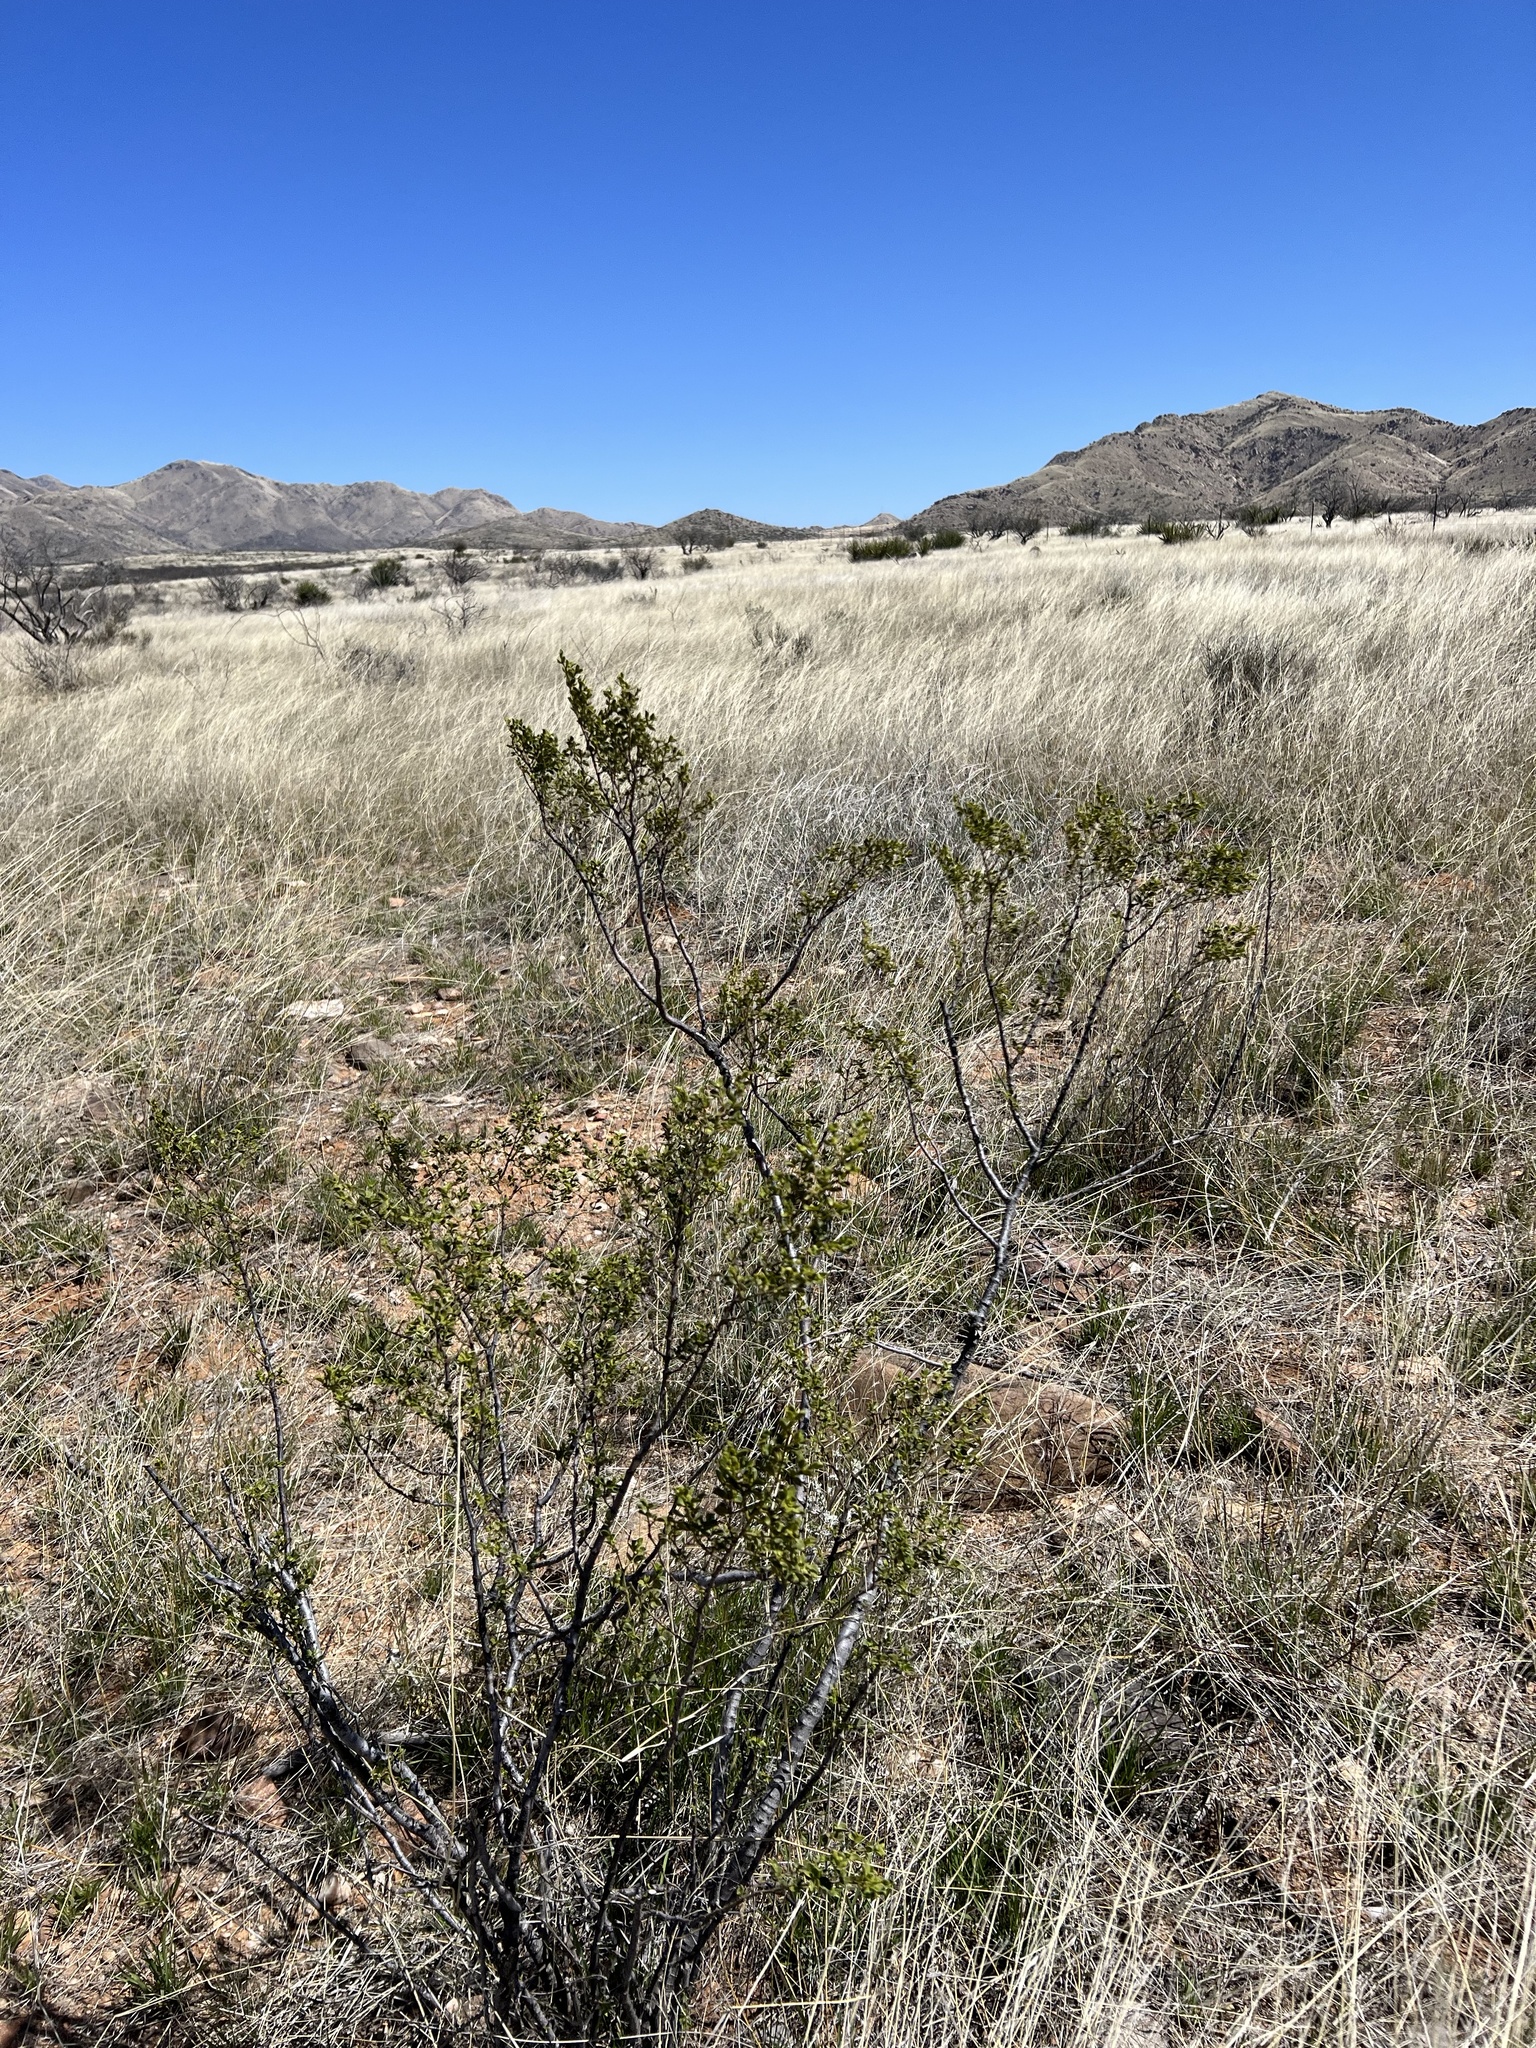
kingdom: Plantae
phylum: Tracheophyta
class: Magnoliopsida
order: Zygophyllales
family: Zygophyllaceae
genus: Larrea
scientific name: Larrea tridentata
